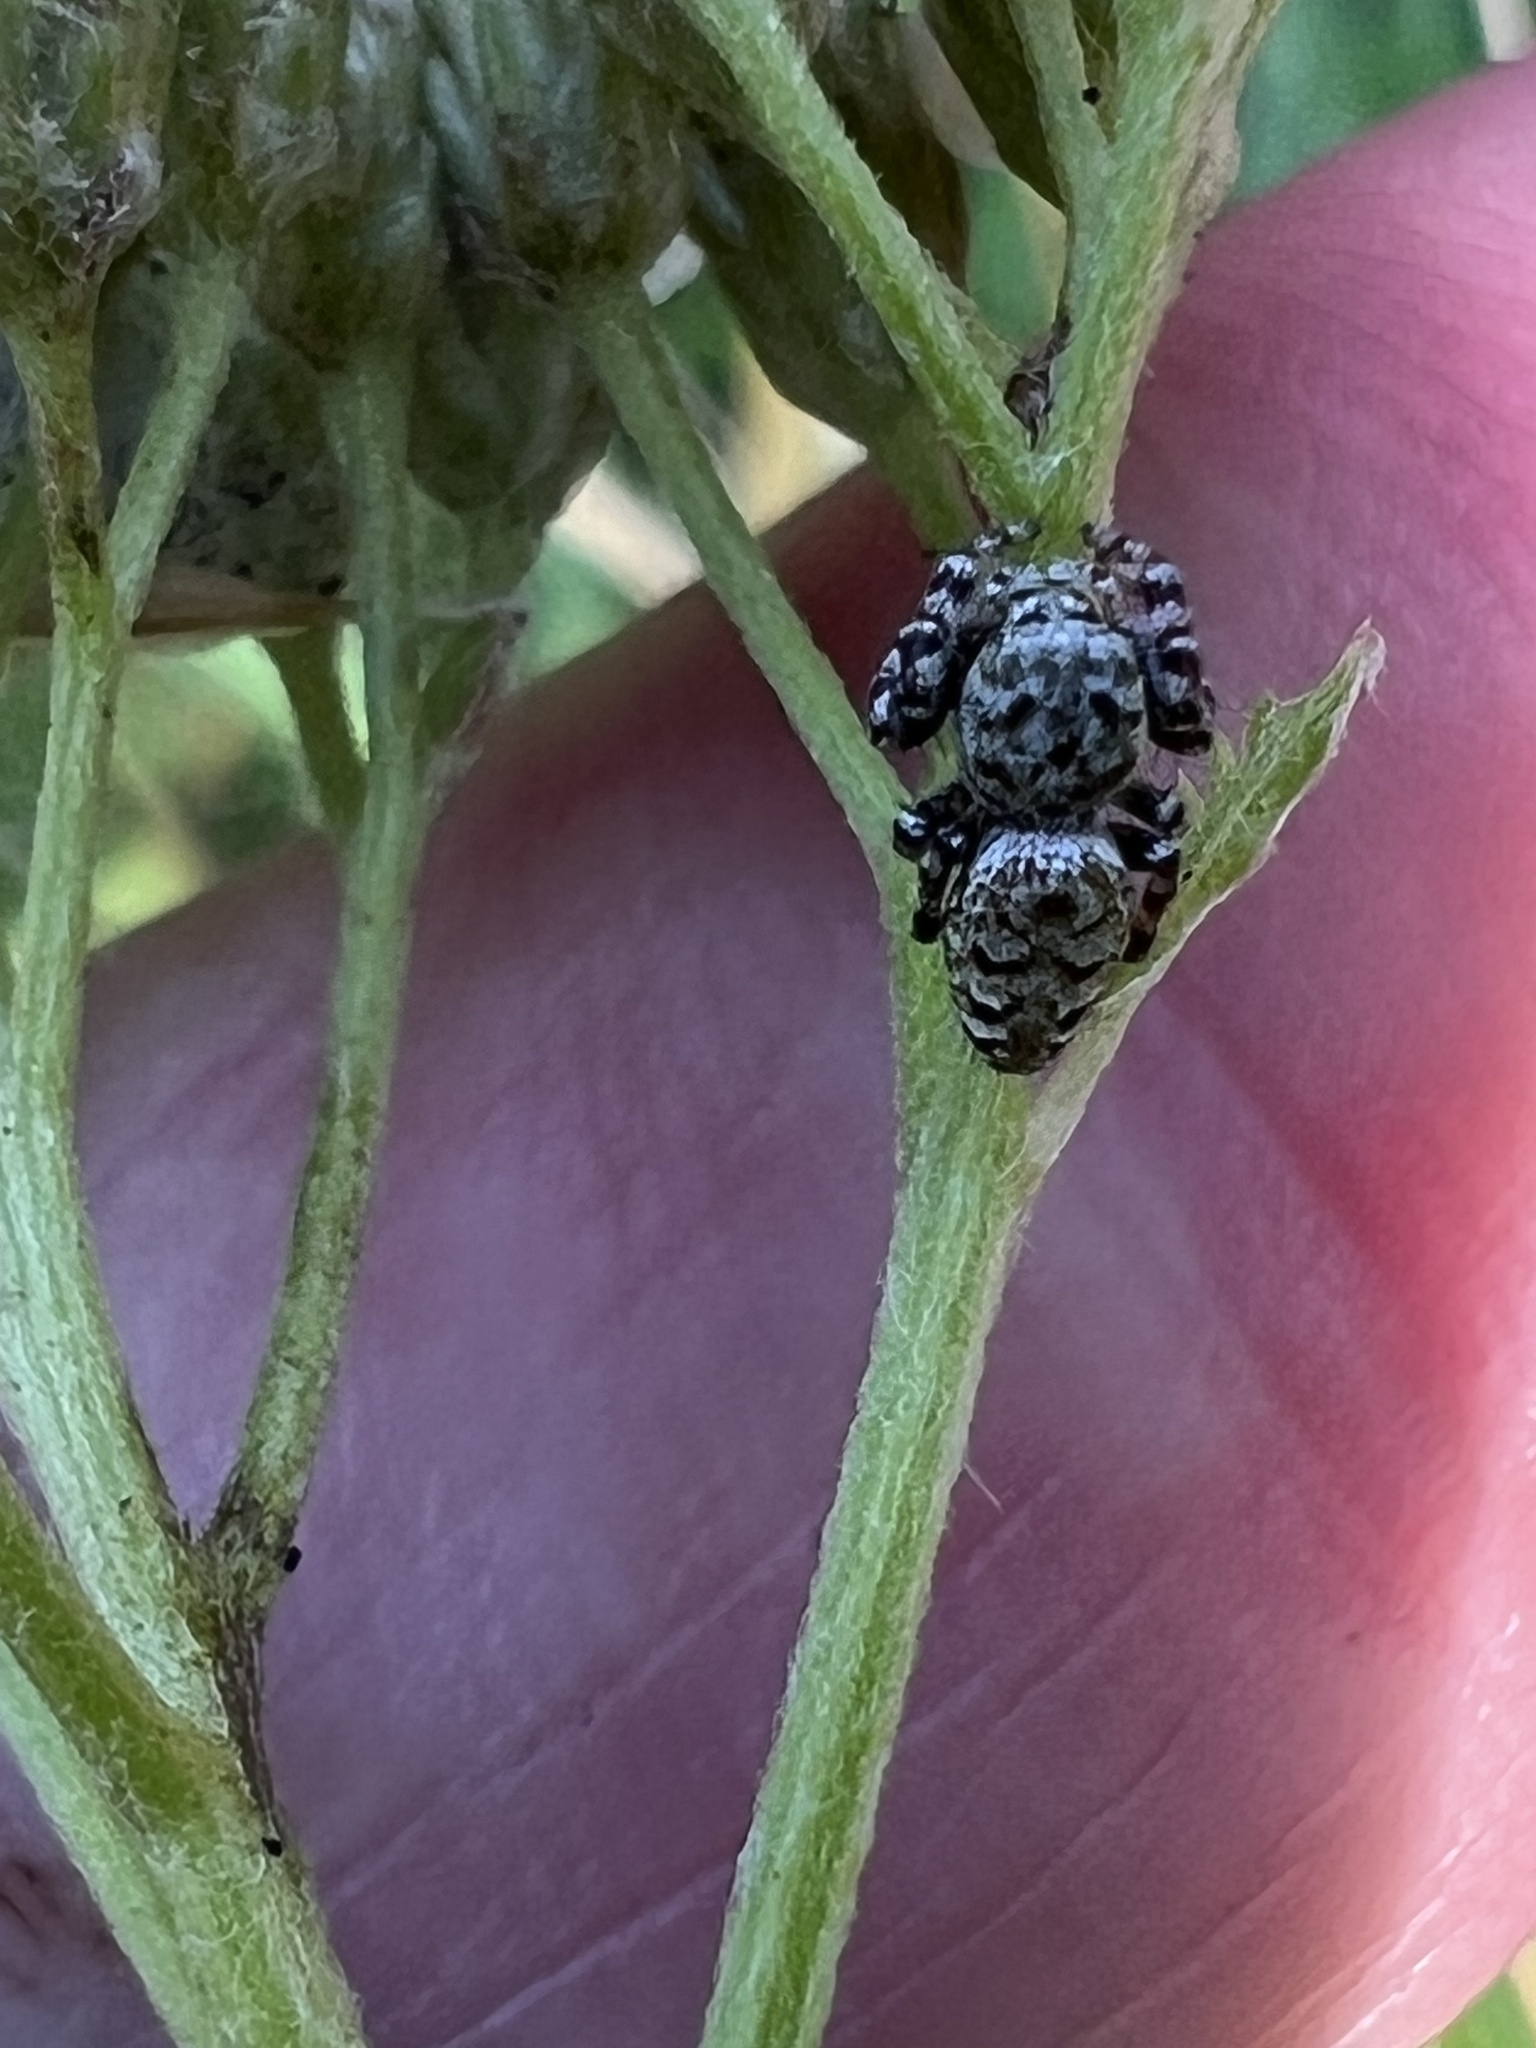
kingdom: Animalia
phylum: Arthropoda
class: Arachnida
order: Araneae
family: Salticidae
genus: Pelegrina
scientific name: Pelegrina galathea
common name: Jumping spiders
